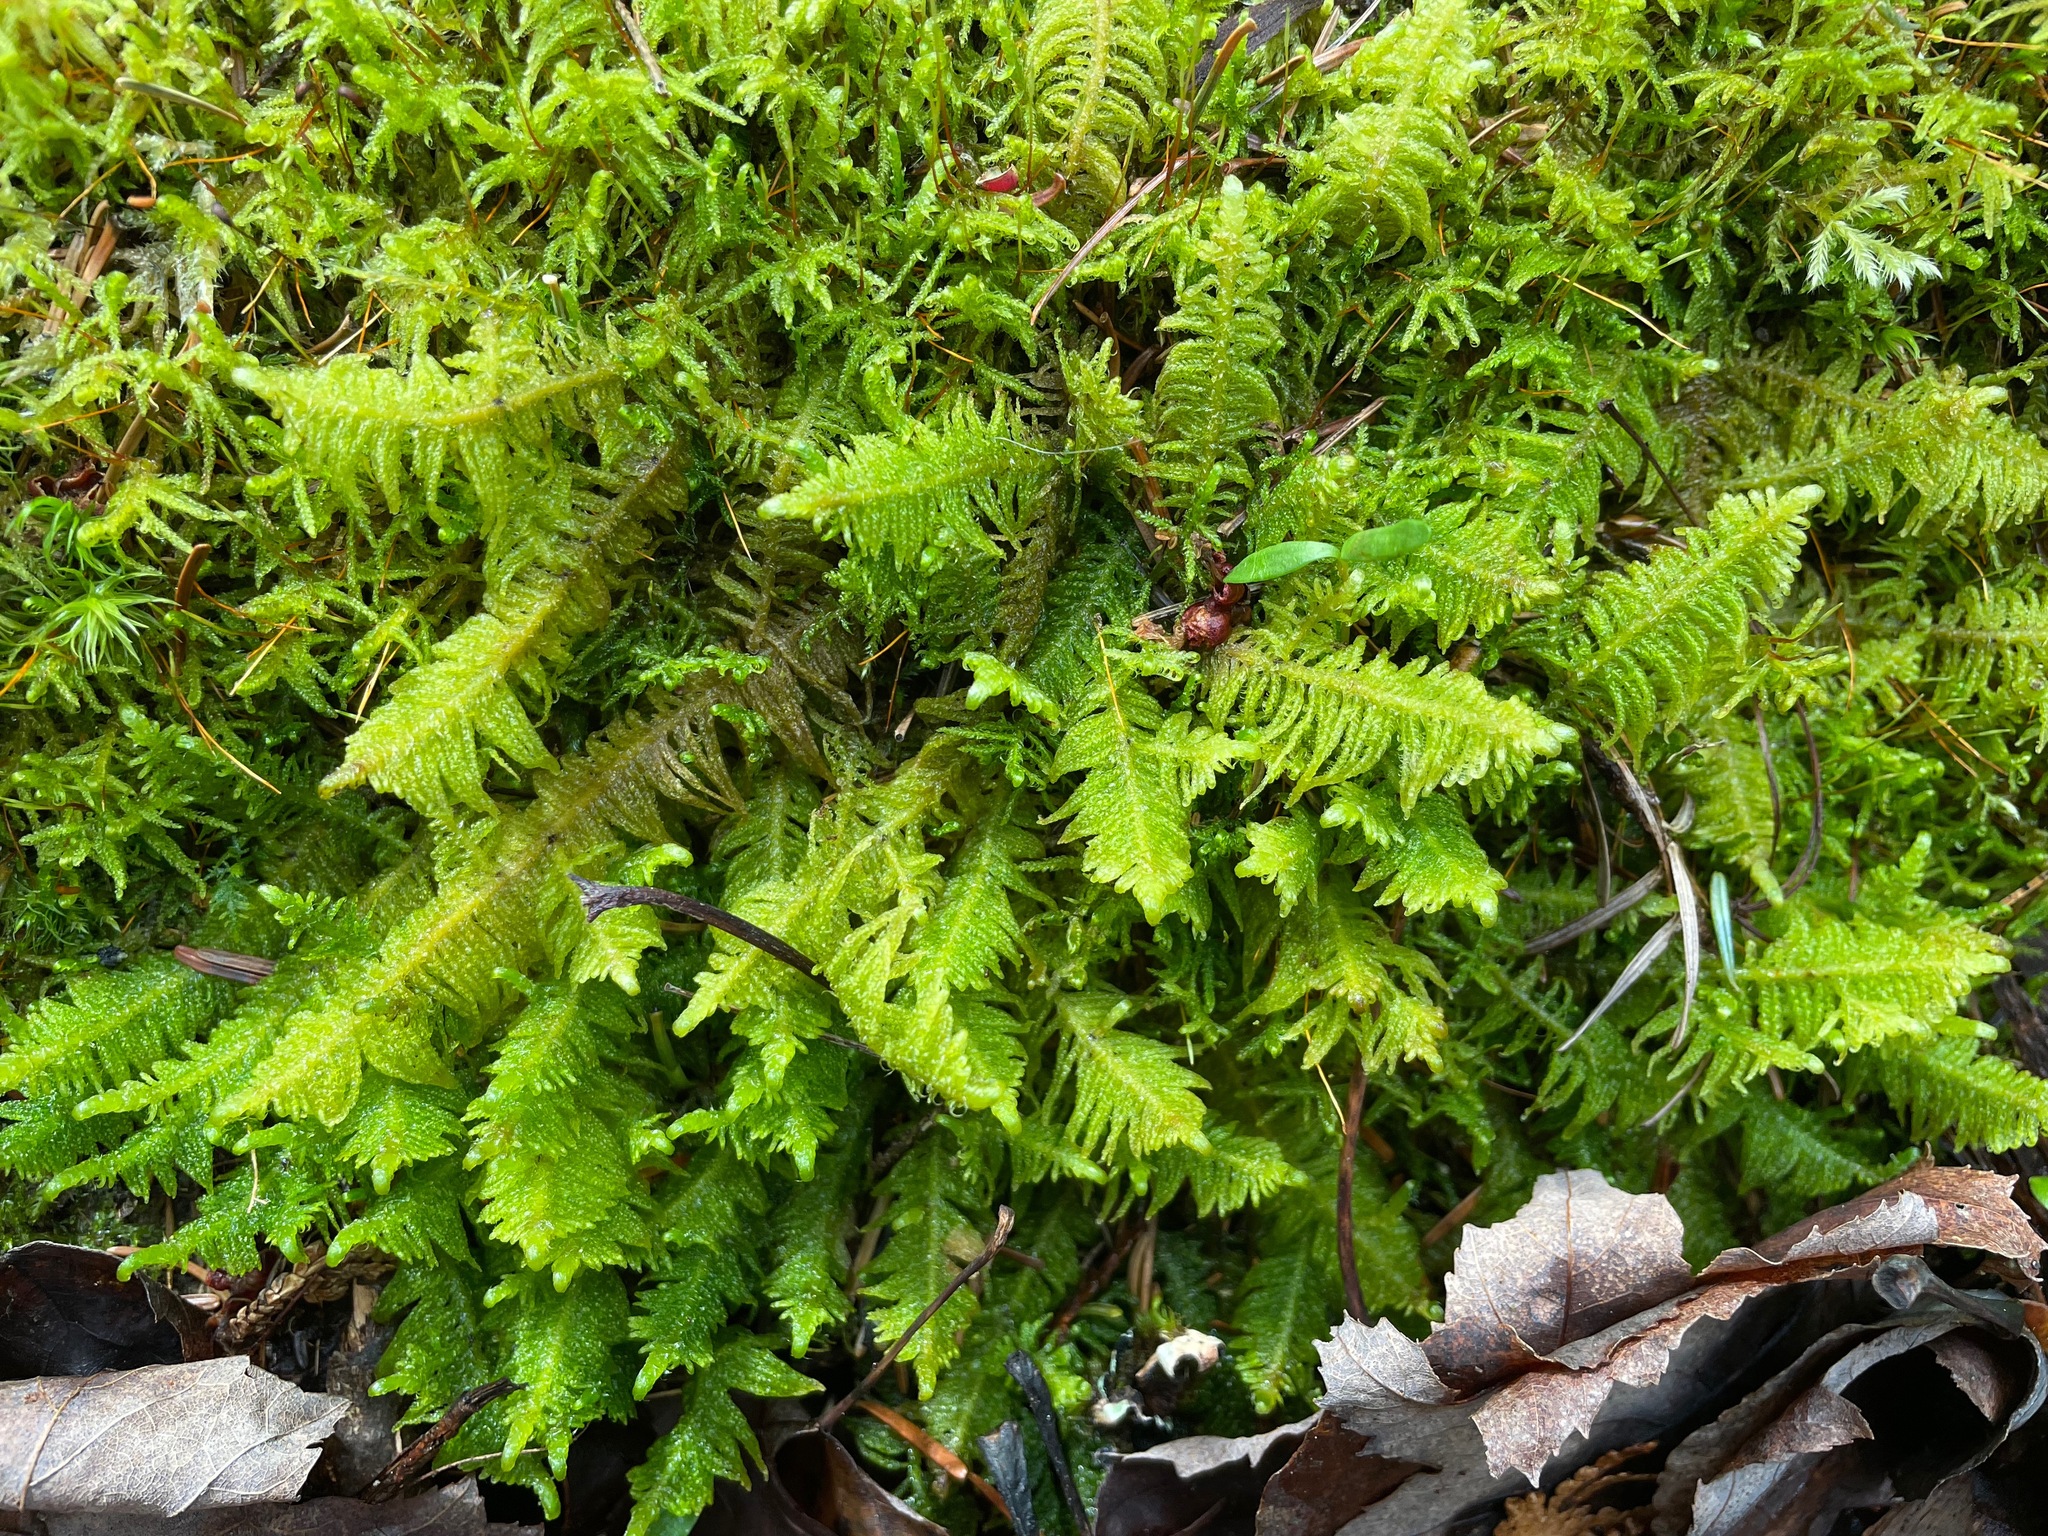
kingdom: Plantae
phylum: Bryophyta
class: Bryopsida
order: Hypnales
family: Pylaisiaceae
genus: Ptilium
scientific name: Ptilium crista-castrensis
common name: Knight's plume moss
